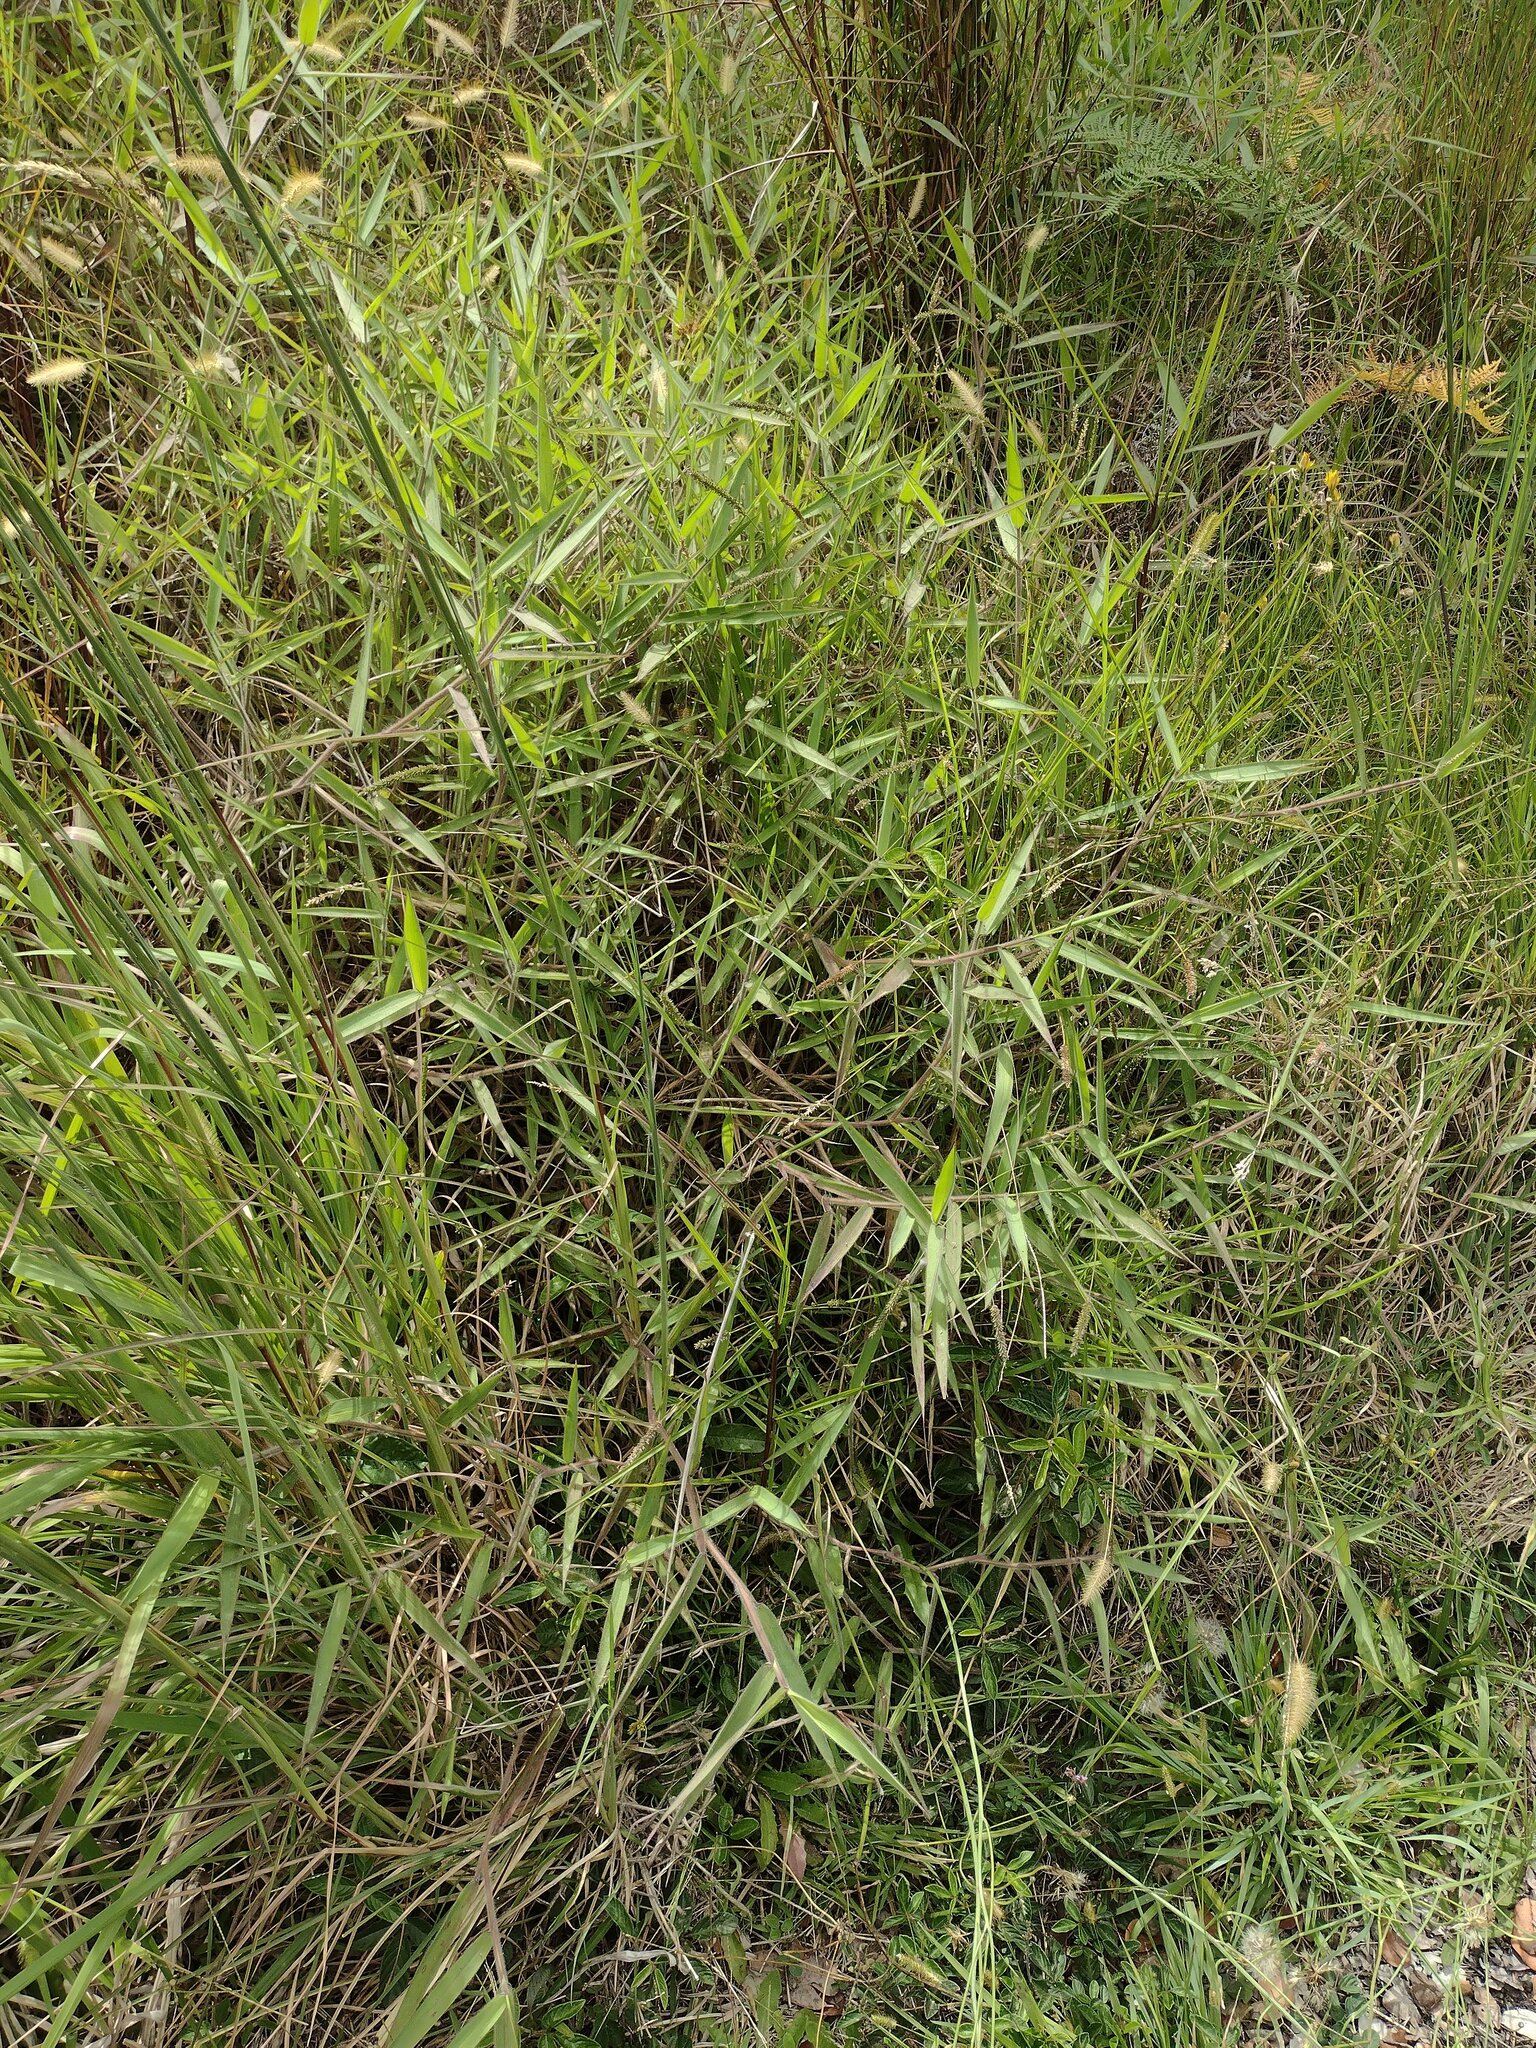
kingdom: Plantae
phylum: Tracheophyta
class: Liliopsida
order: Poales
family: Poaceae
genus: Melinis
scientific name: Melinis minutiflora
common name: Molassesgrass
